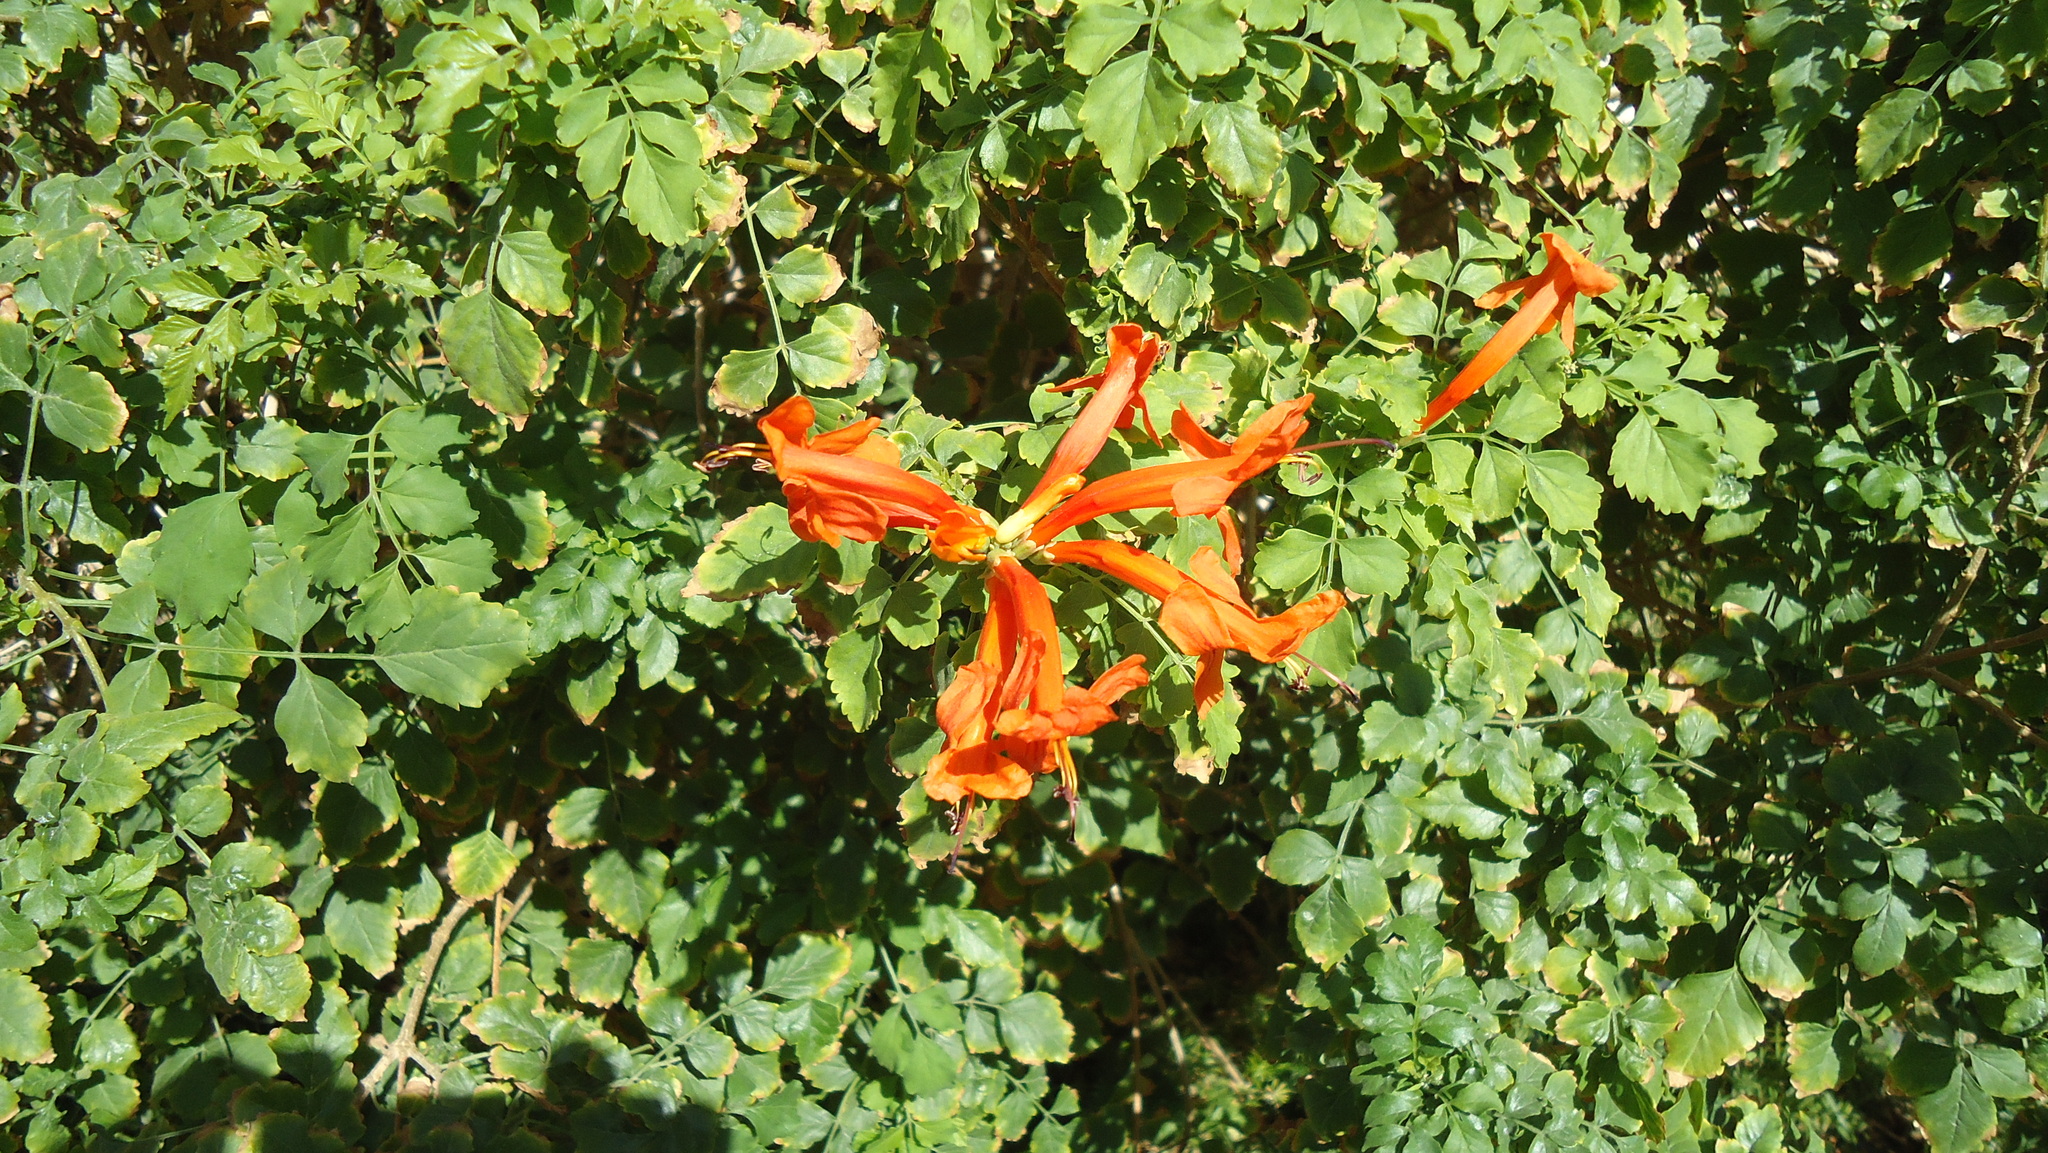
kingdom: Plantae
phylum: Tracheophyta
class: Magnoliopsida
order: Lamiales
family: Bignoniaceae
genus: Tecomaria
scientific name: Tecomaria capensis
